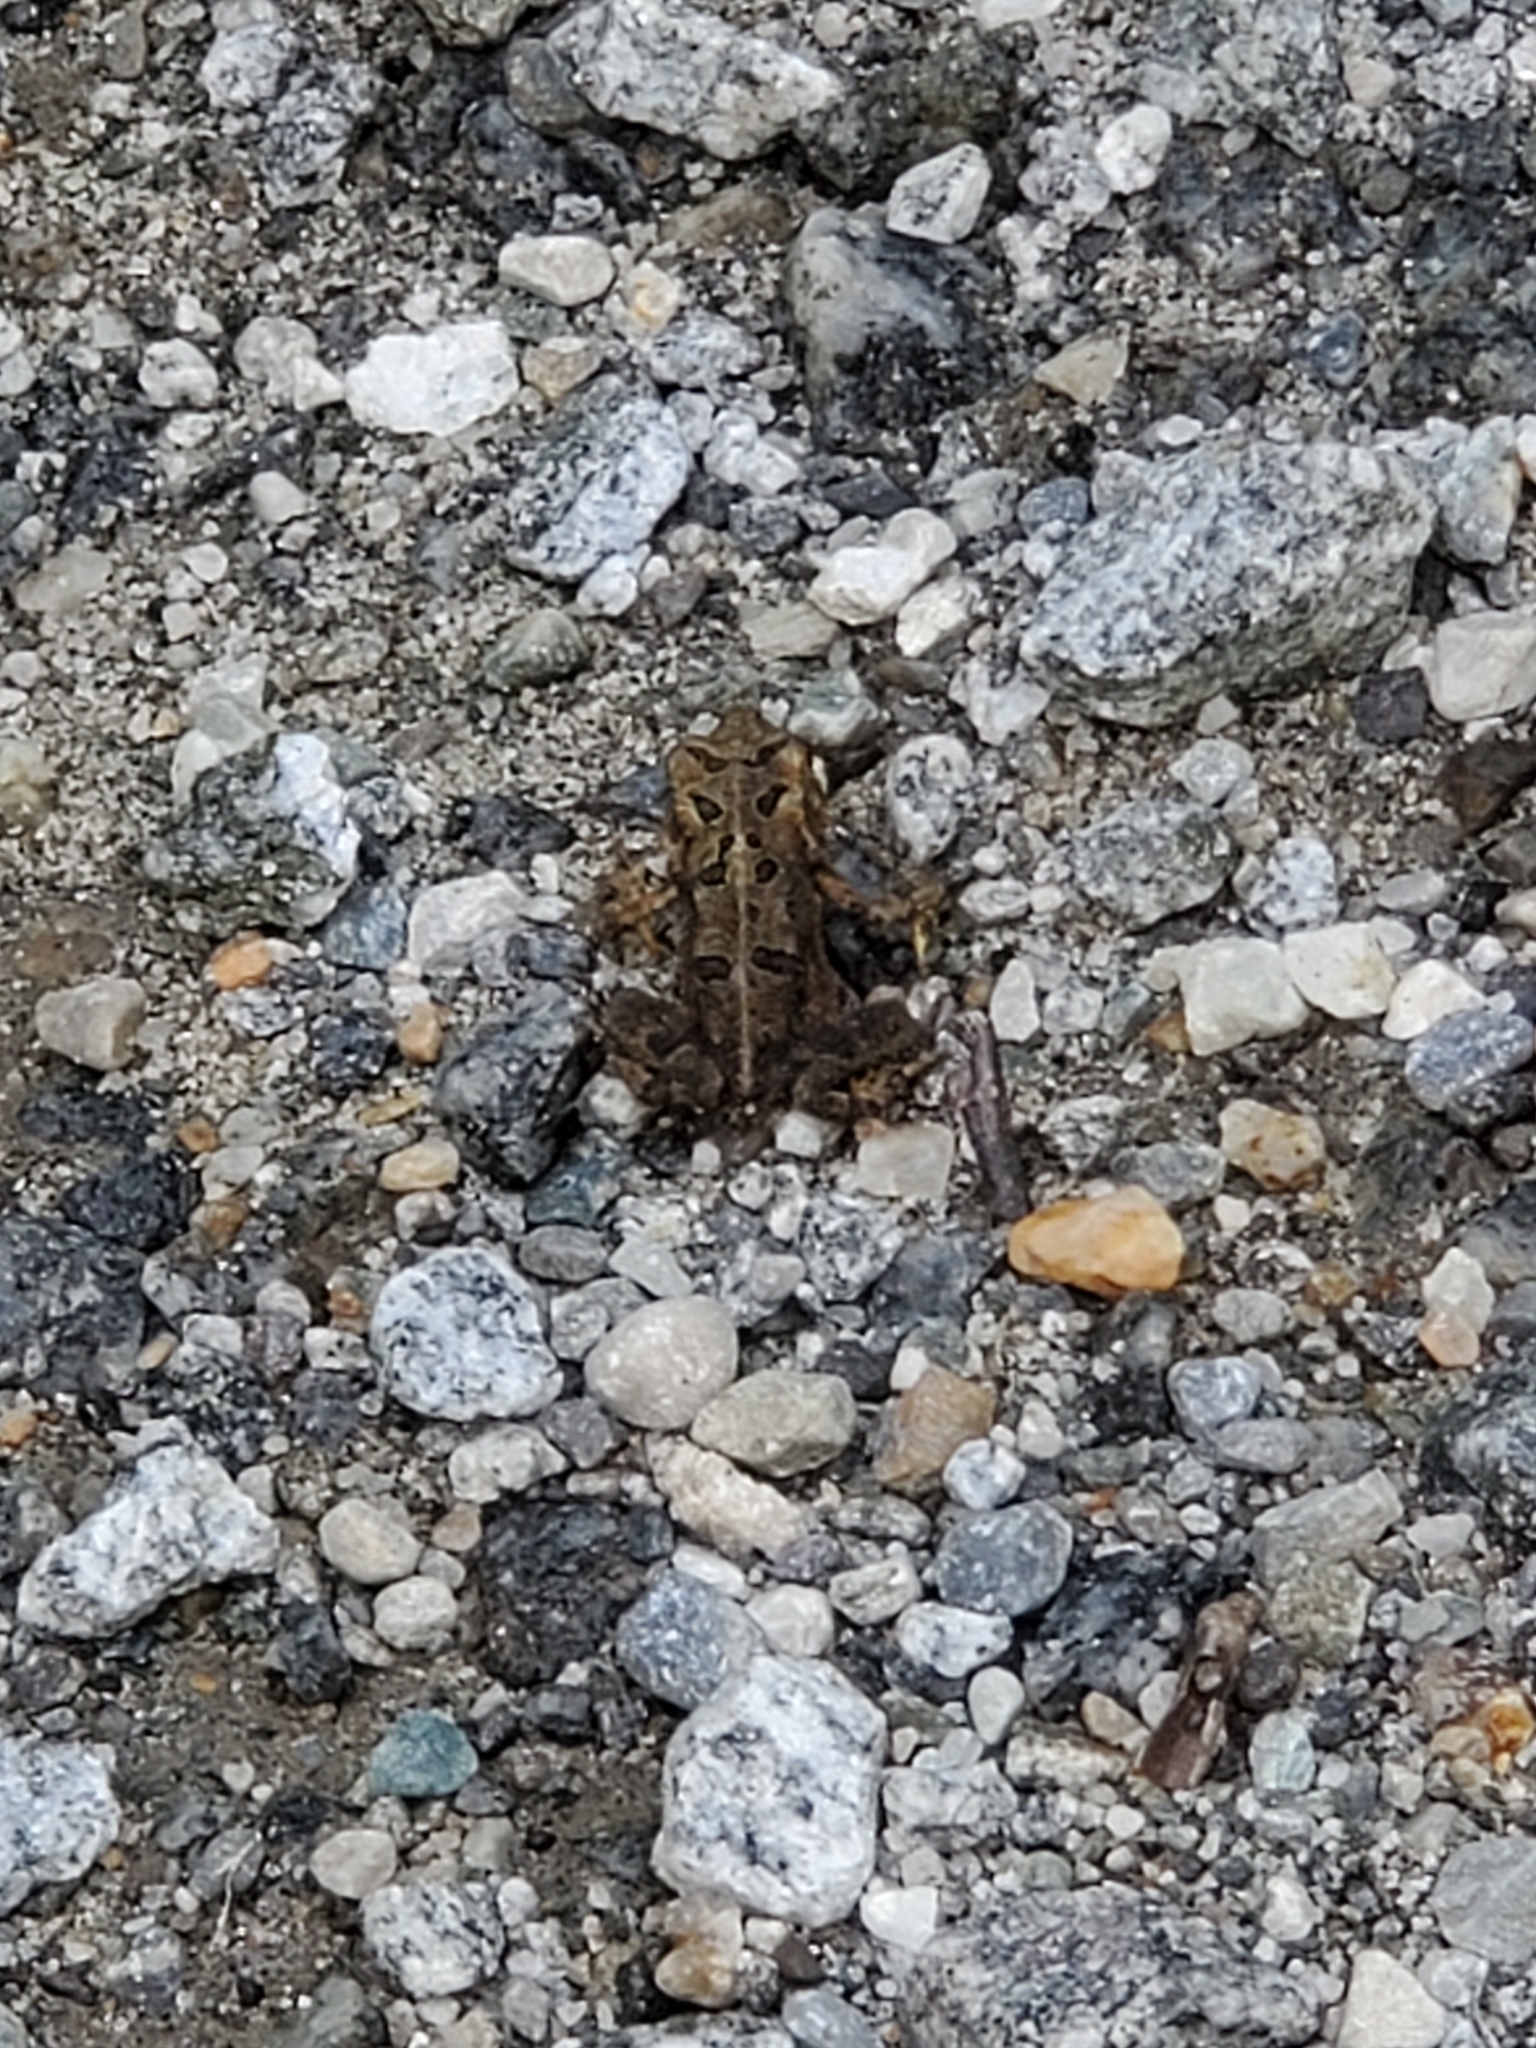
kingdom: Animalia
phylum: Chordata
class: Amphibia
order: Anura
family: Bufonidae
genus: Anaxyrus
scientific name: Anaxyrus americanus
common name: American toad
